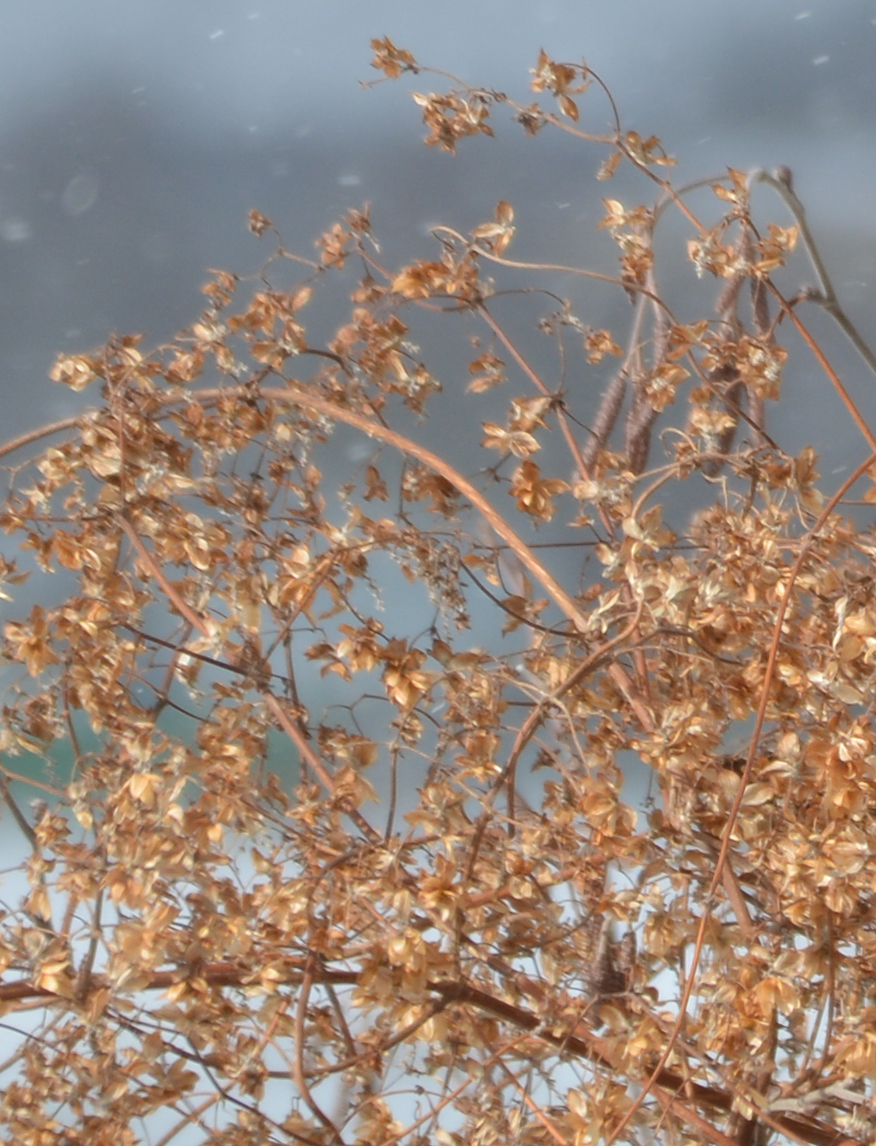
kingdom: Plantae
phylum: Tracheophyta
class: Magnoliopsida
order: Rosales
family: Cannabaceae
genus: Humulus
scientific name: Humulus lupulus
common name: Hop
